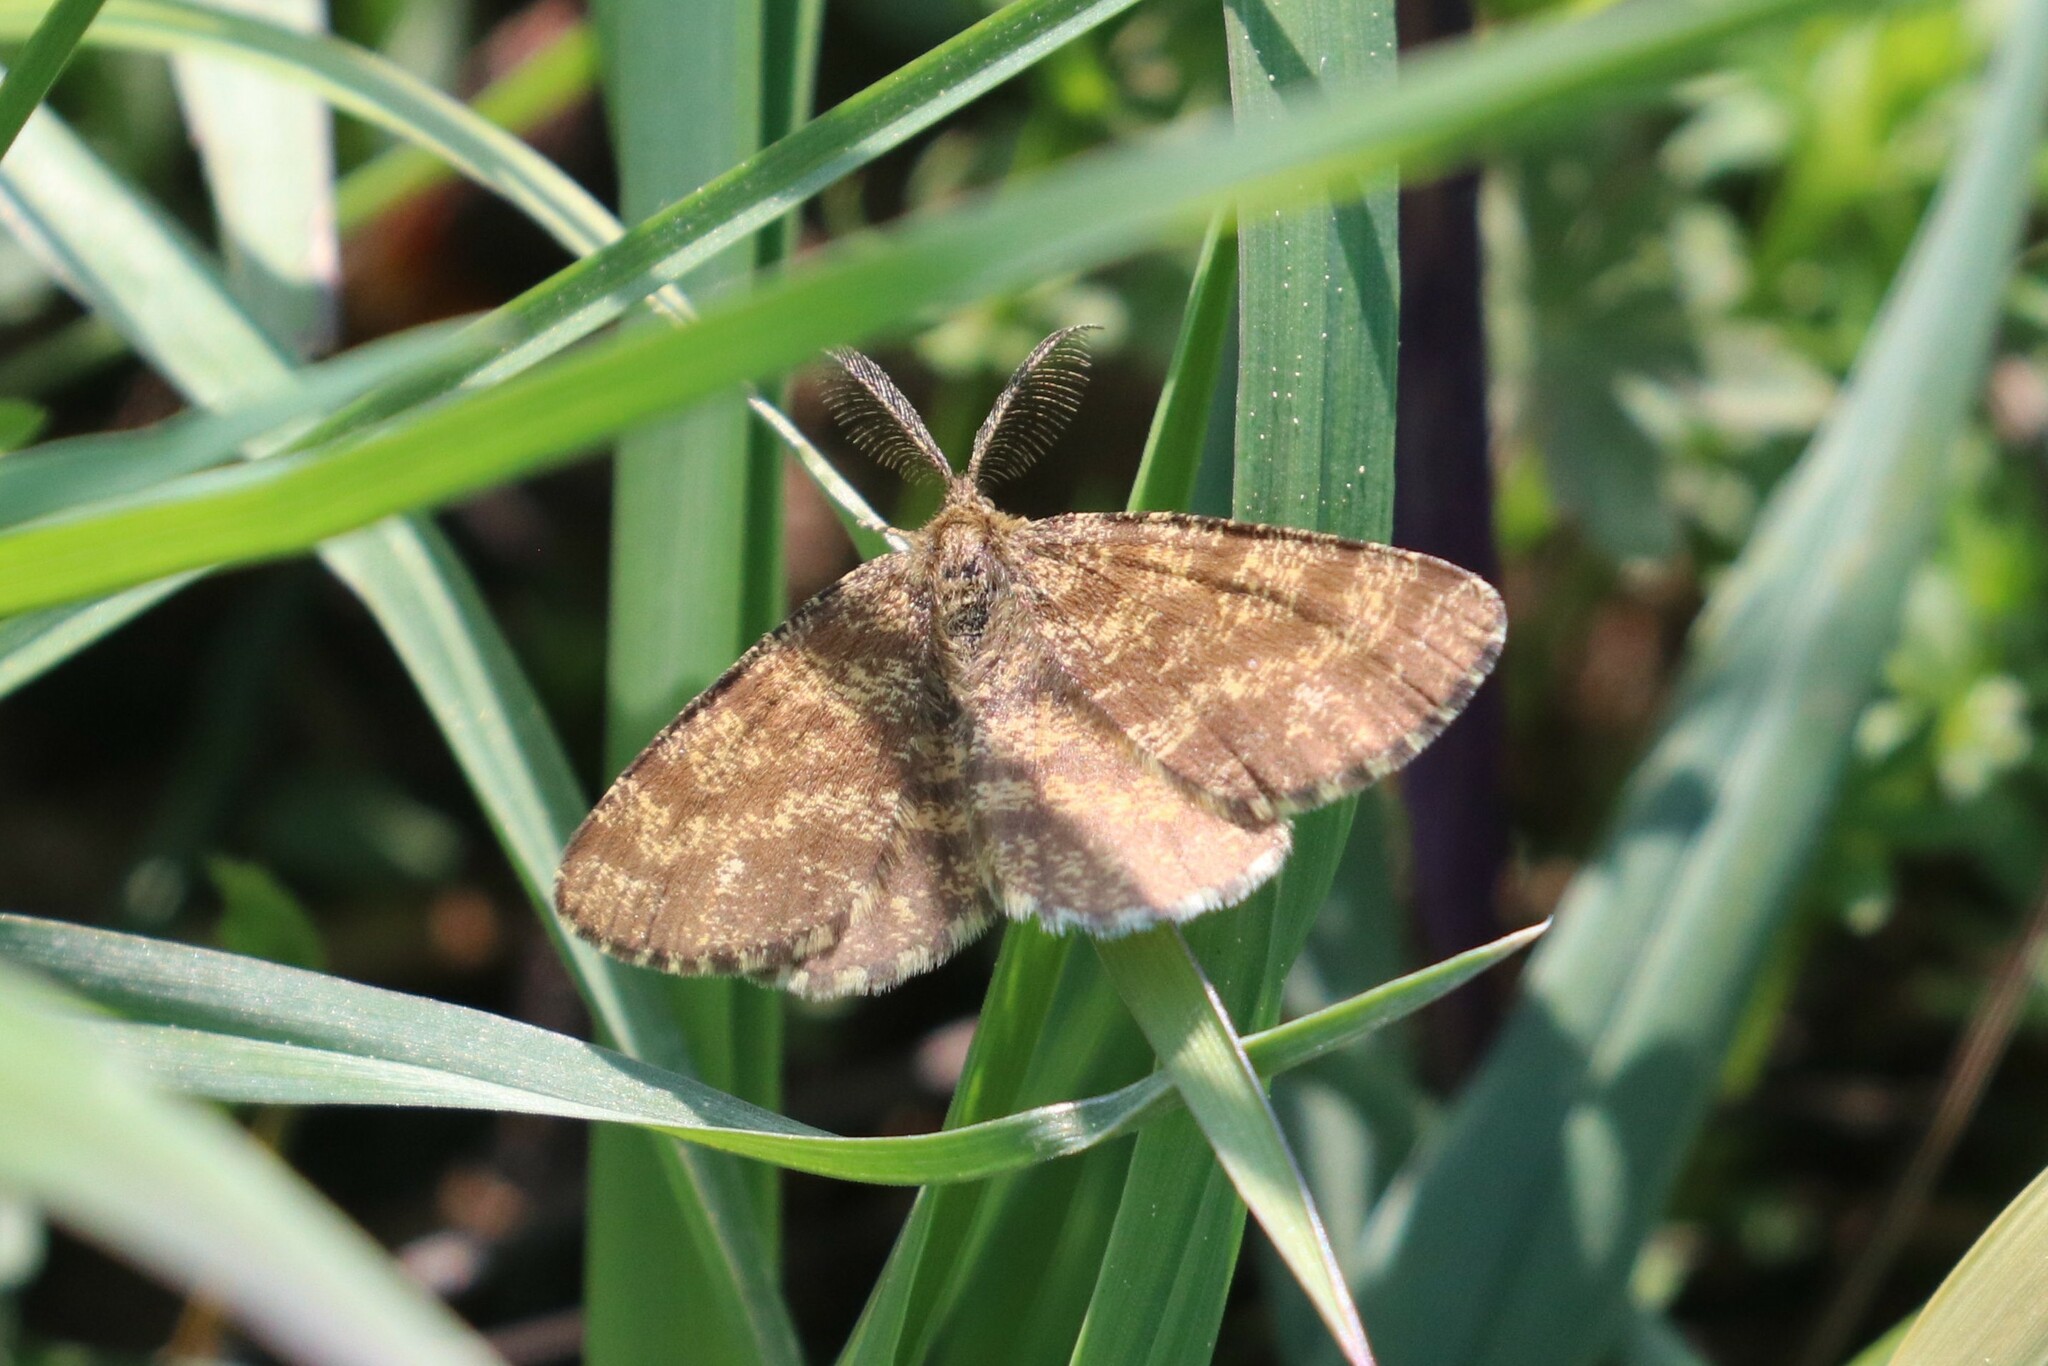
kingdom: Animalia
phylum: Arthropoda
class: Insecta
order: Lepidoptera
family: Geometridae
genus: Ematurga
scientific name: Ematurga atomaria
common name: Common heath
